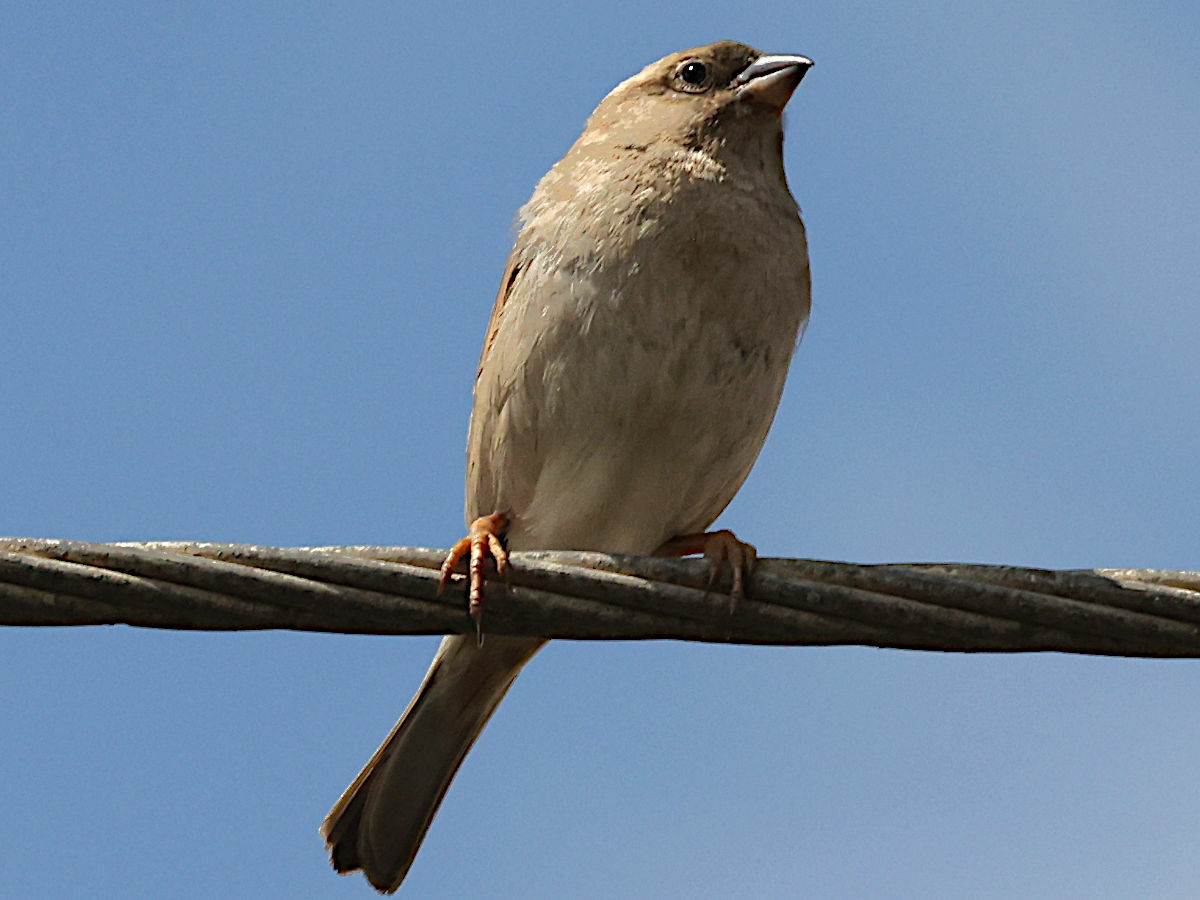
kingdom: Animalia
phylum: Chordata
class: Aves
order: Passeriformes
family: Passeridae
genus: Passer
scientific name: Passer domesticus
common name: House sparrow
